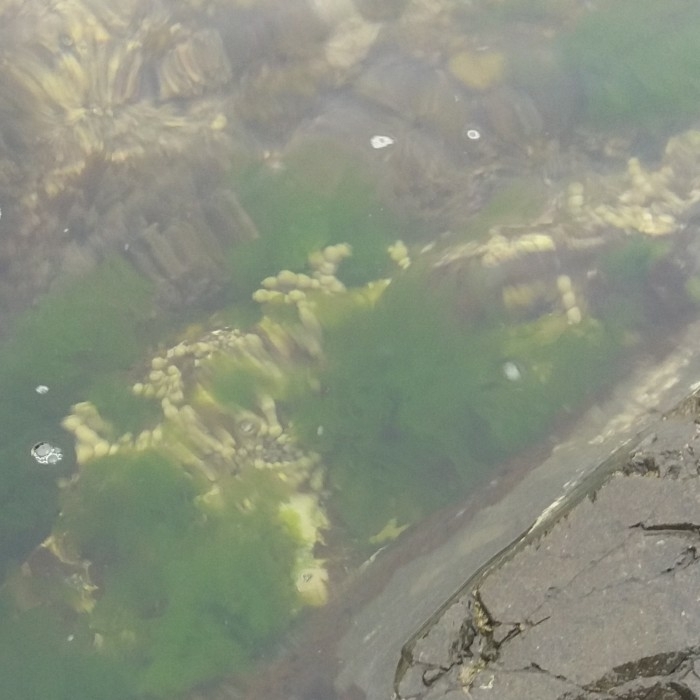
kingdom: Chromista
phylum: Ochrophyta
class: Phaeophyceae
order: Fucales
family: Hormosiraceae
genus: Hormosira
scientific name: Hormosira banksii
